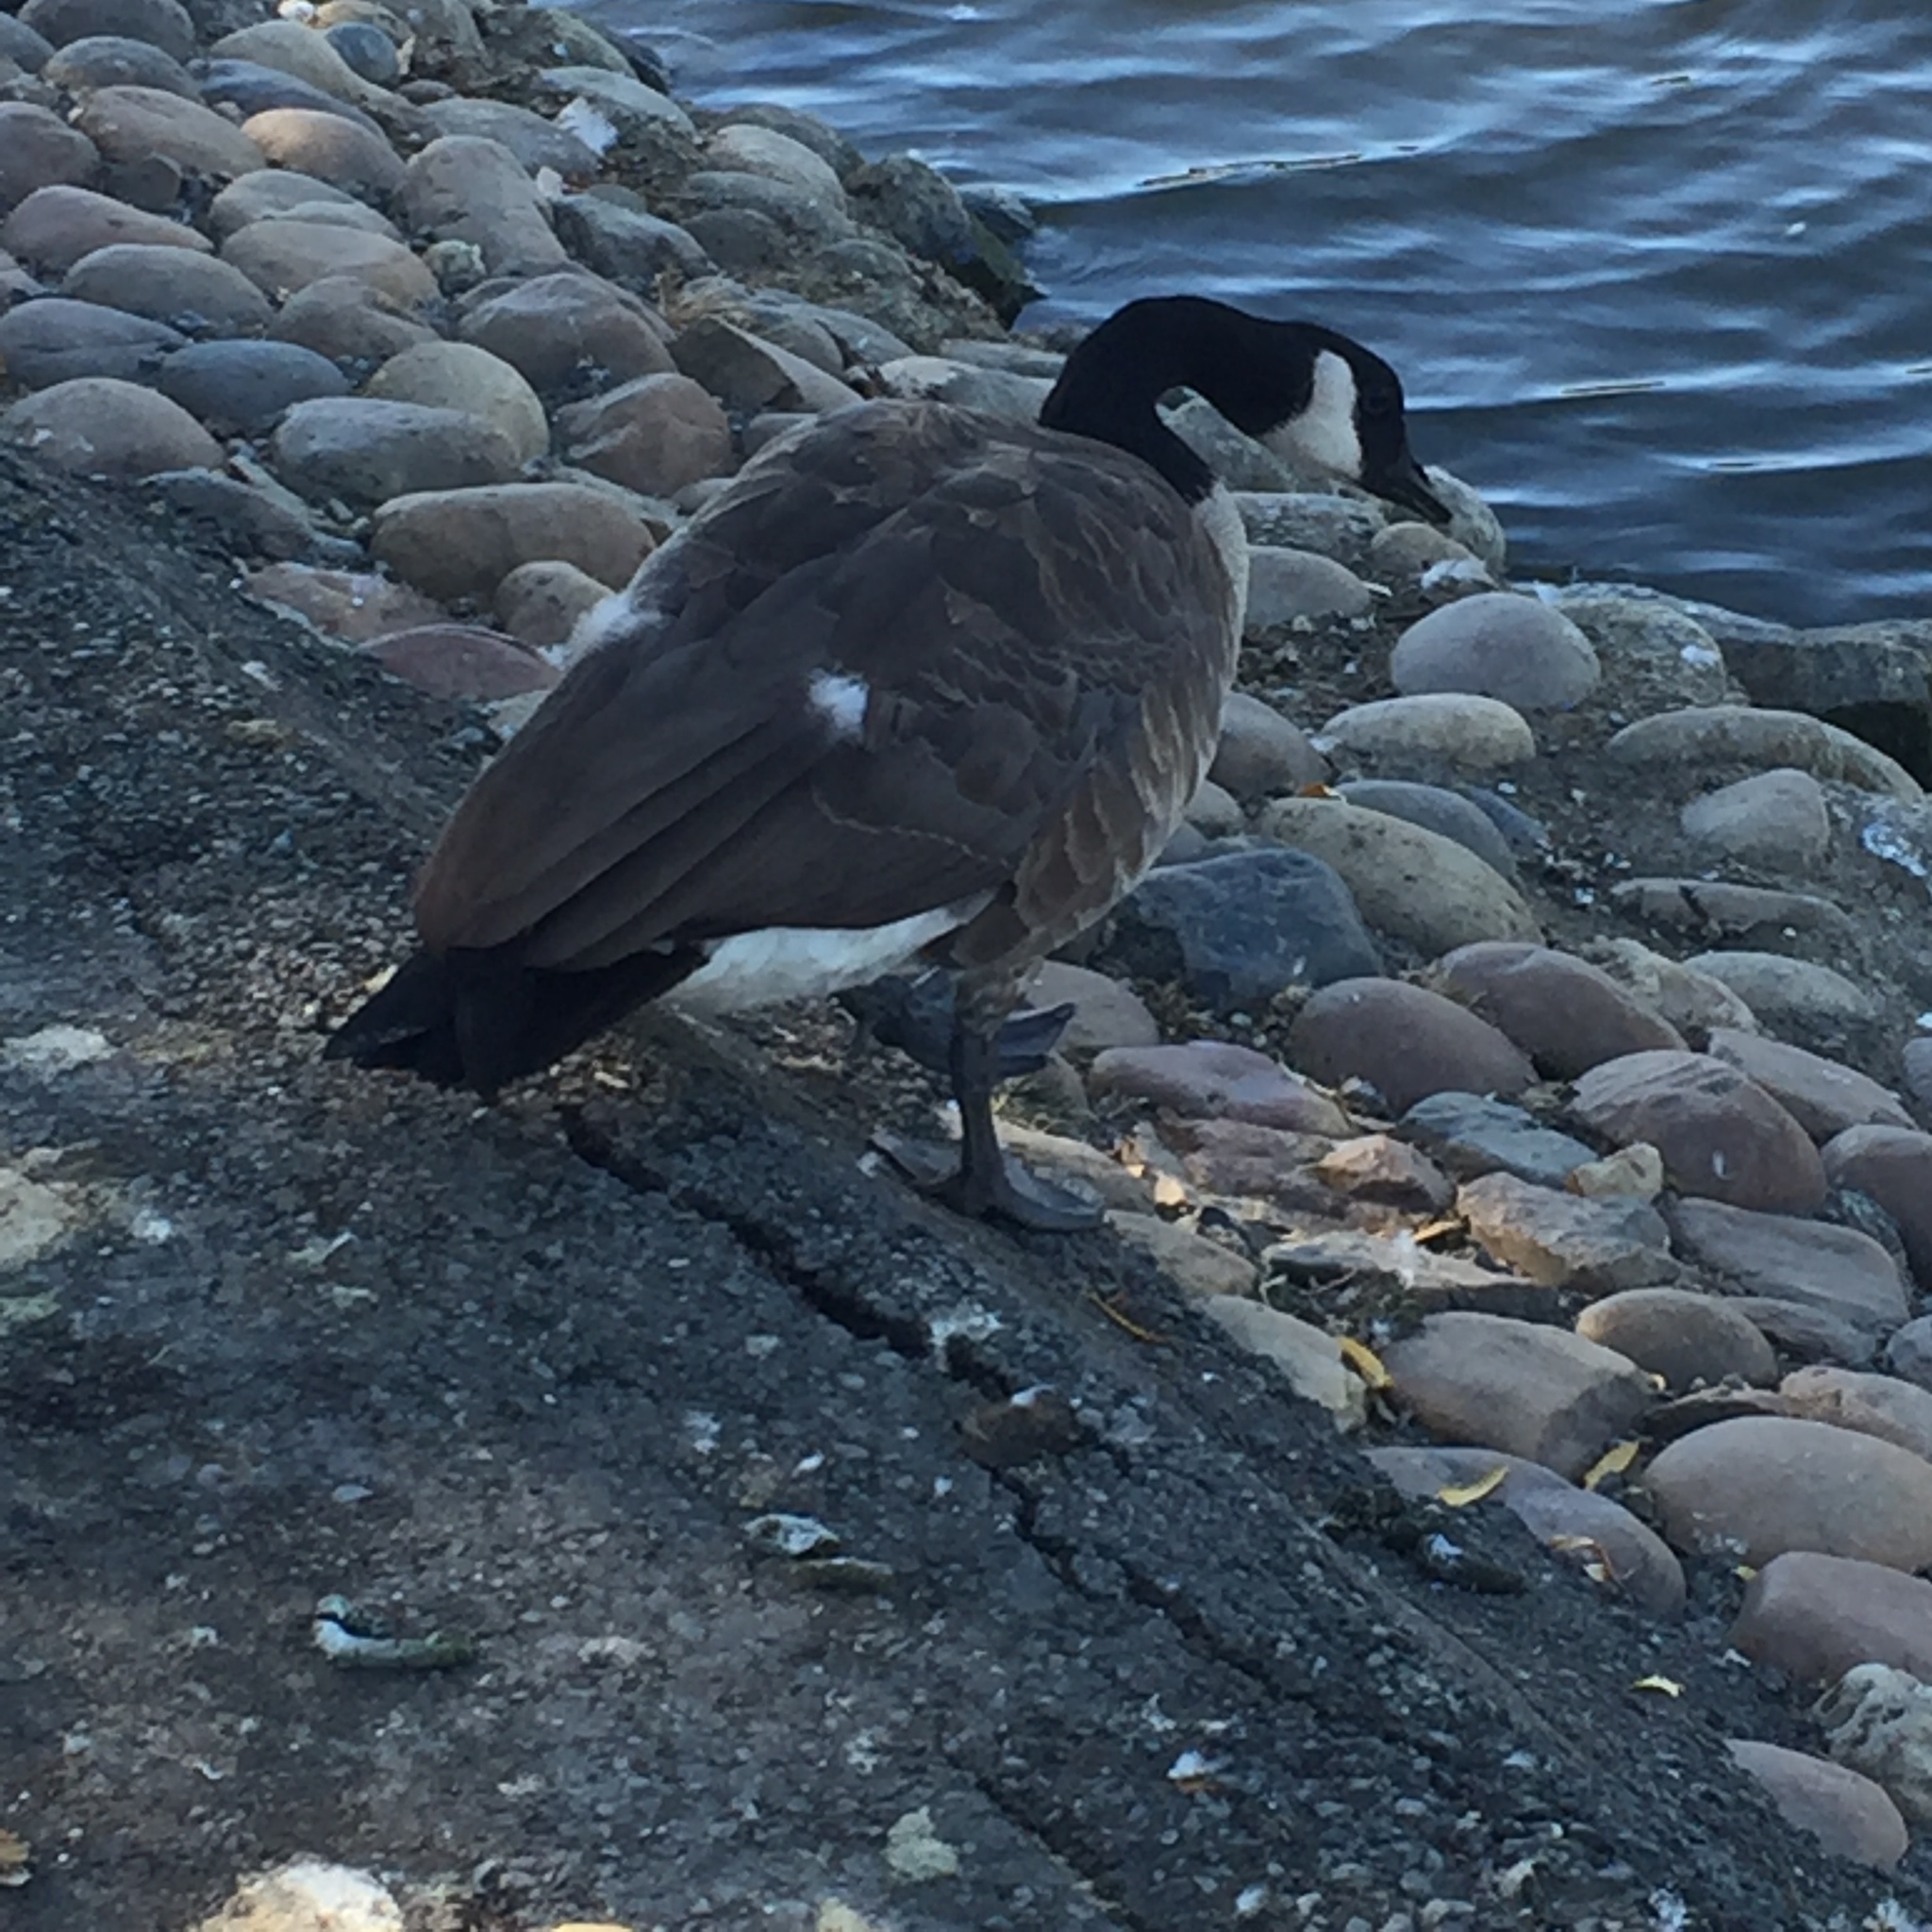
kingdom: Animalia
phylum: Chordata
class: Aves
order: Anseriformes
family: Anatidae
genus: Branta
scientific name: Branta canadensis
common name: Canada goose
